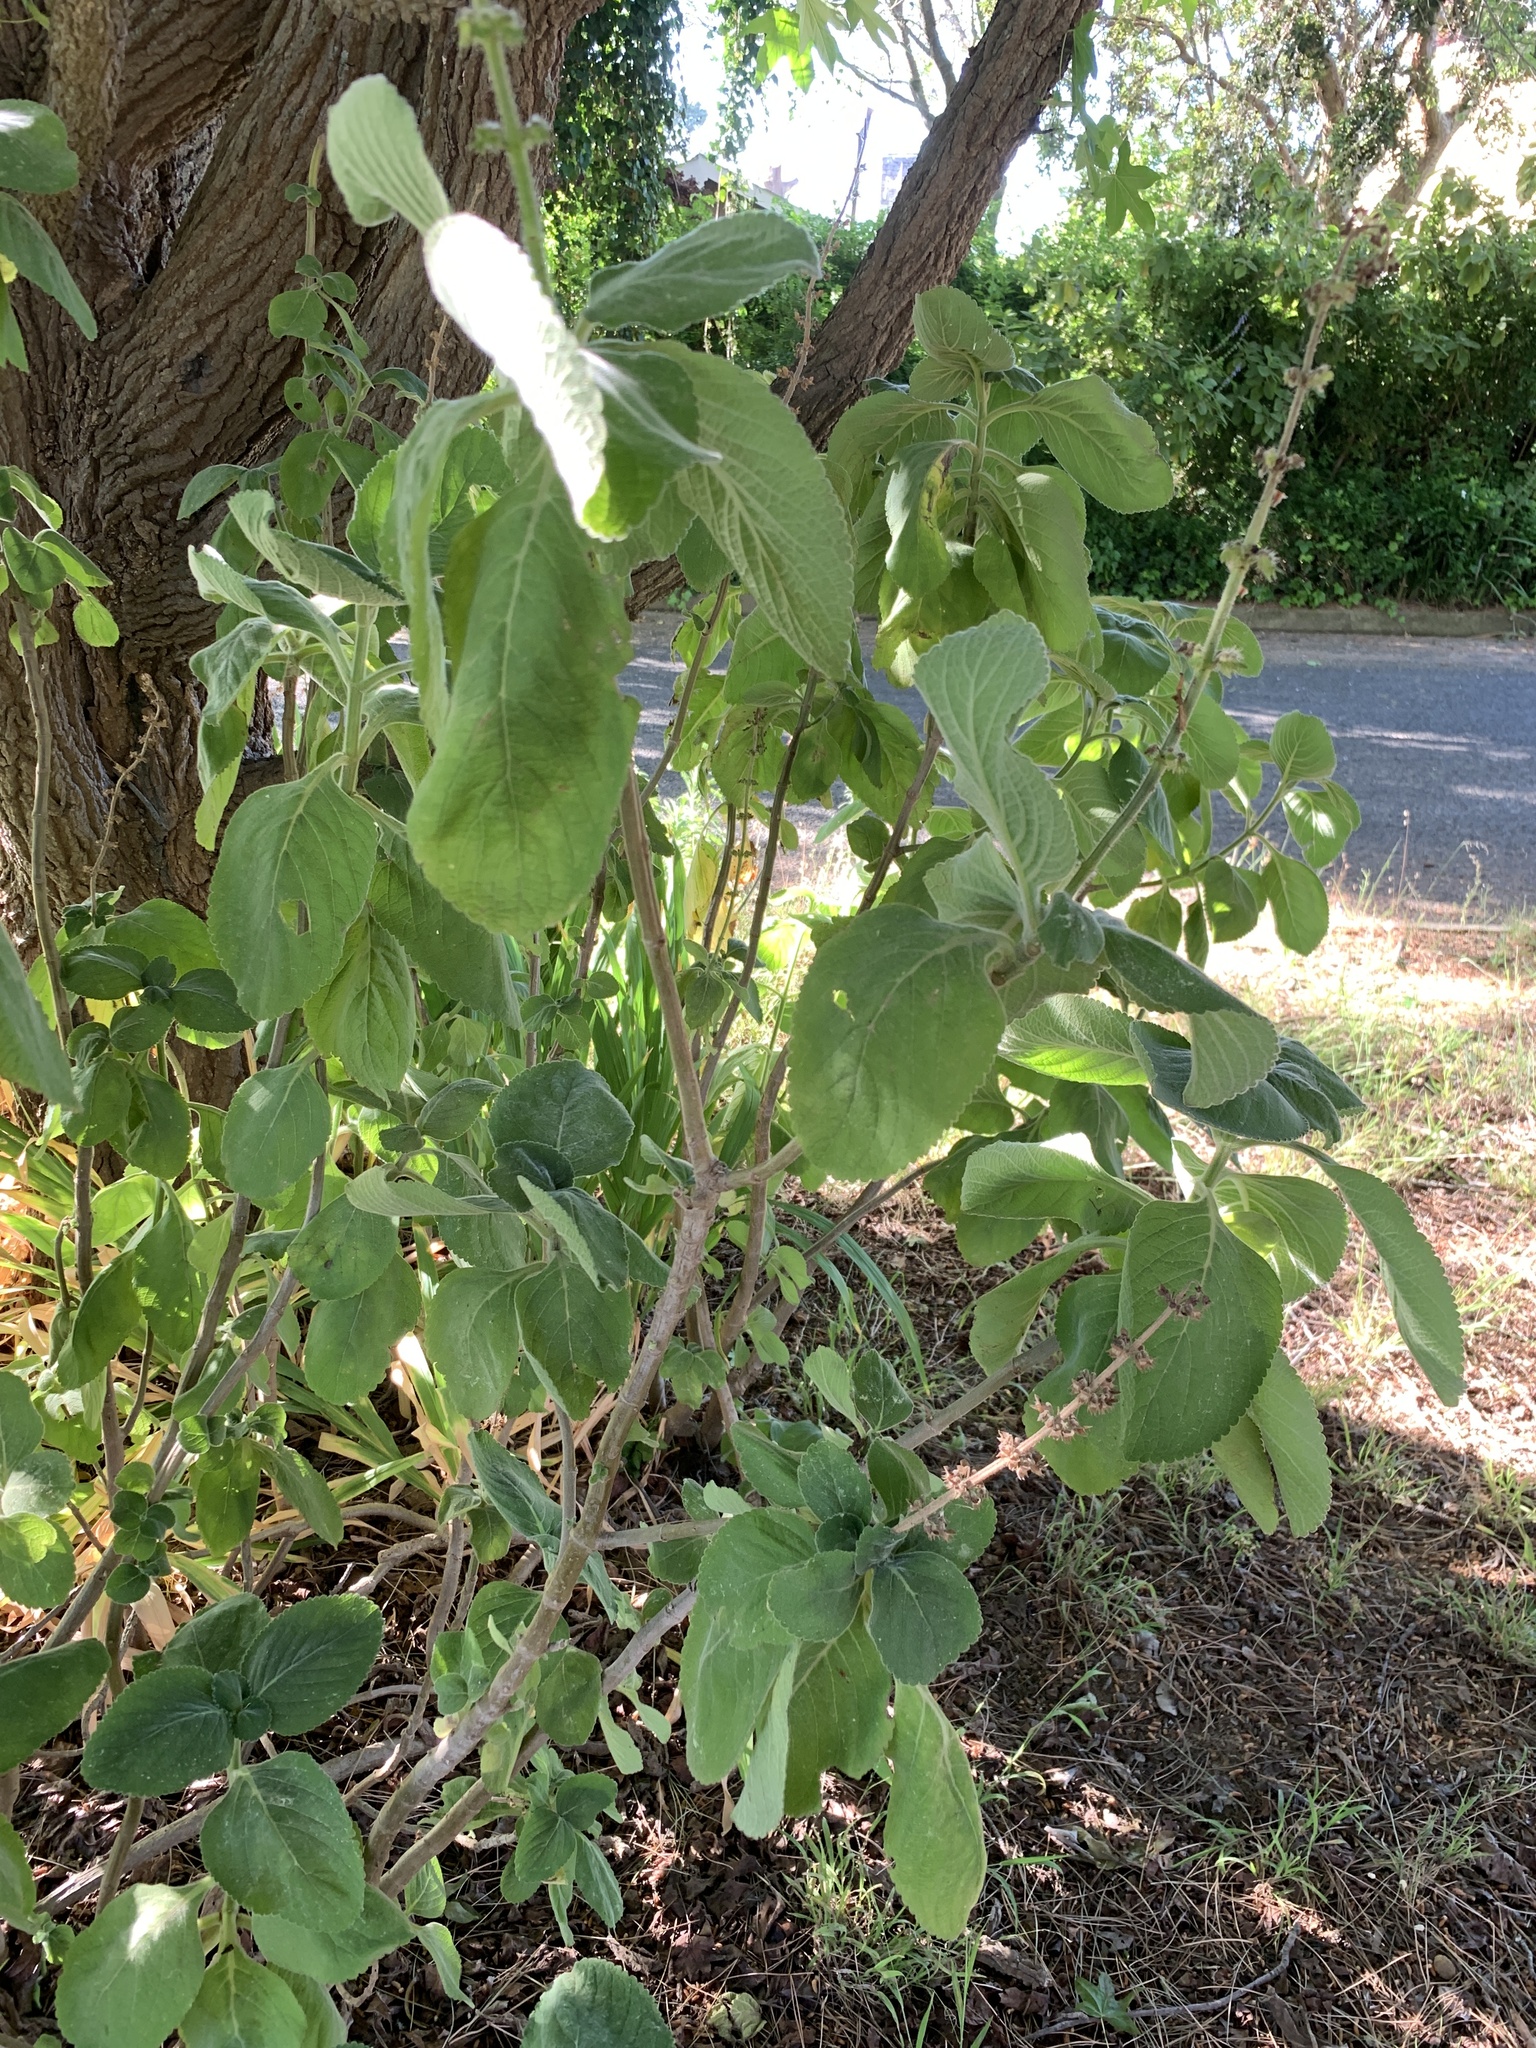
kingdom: Plantae
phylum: Tracheophyta
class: Magnoliopsida
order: Lamiales
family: Lamiaceae
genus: Coleus
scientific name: Coleus barbatus
